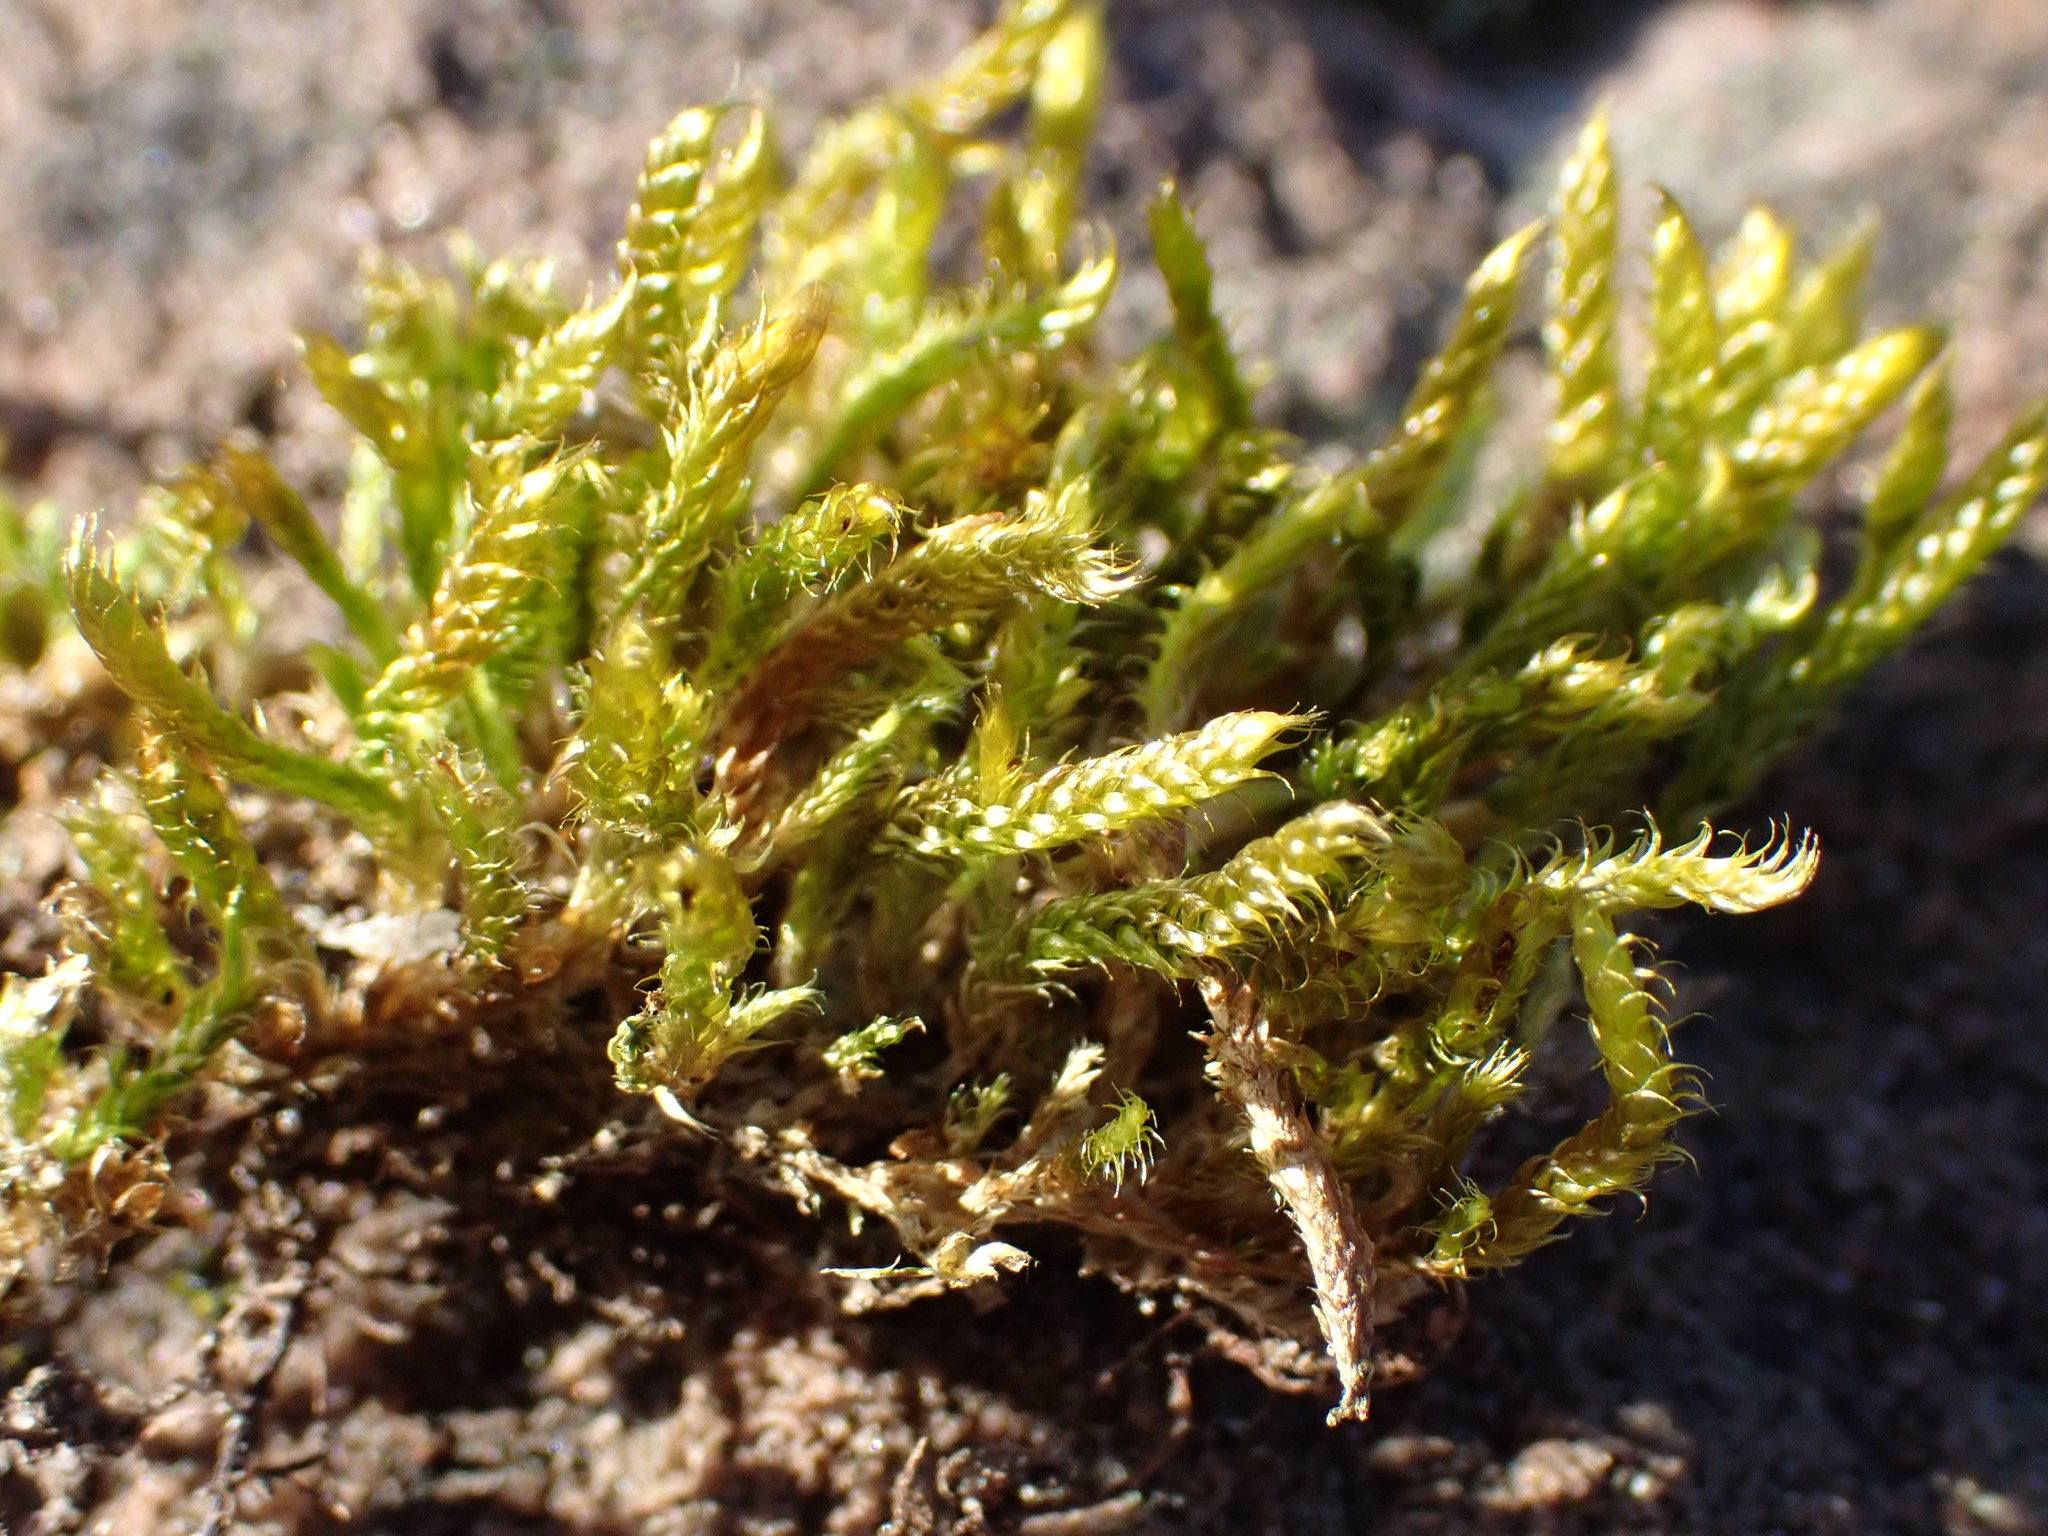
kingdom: Plantae
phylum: Bryophyta
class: Bryopsida
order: Hypnales
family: Hypnaceae
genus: Hypnum
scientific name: Hypnum cupressiforme
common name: Cypress-leaved plait-moss
